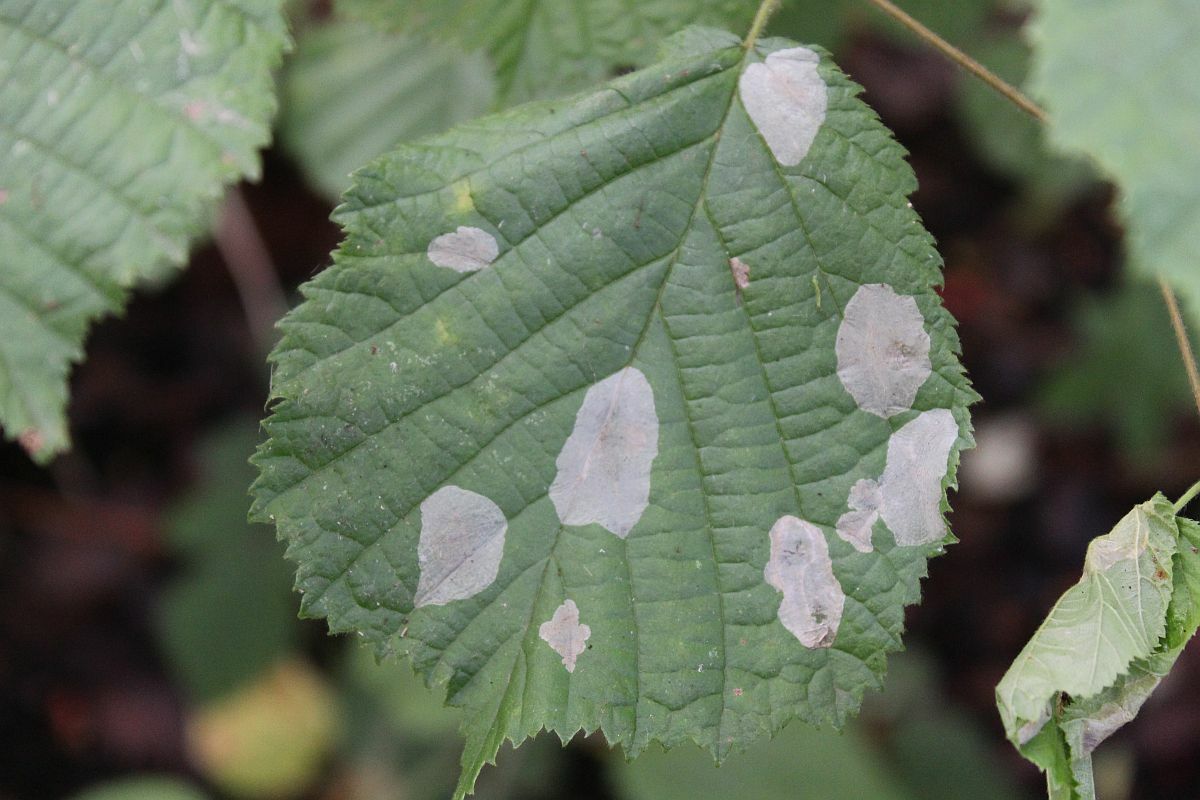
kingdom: Animalia
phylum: Arthropoda
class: Insecta
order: Lepidoptera
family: Gracillariidae
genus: Phyllonorycter
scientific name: Phyllonorycter coryli
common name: Nut-leaf blister moth
